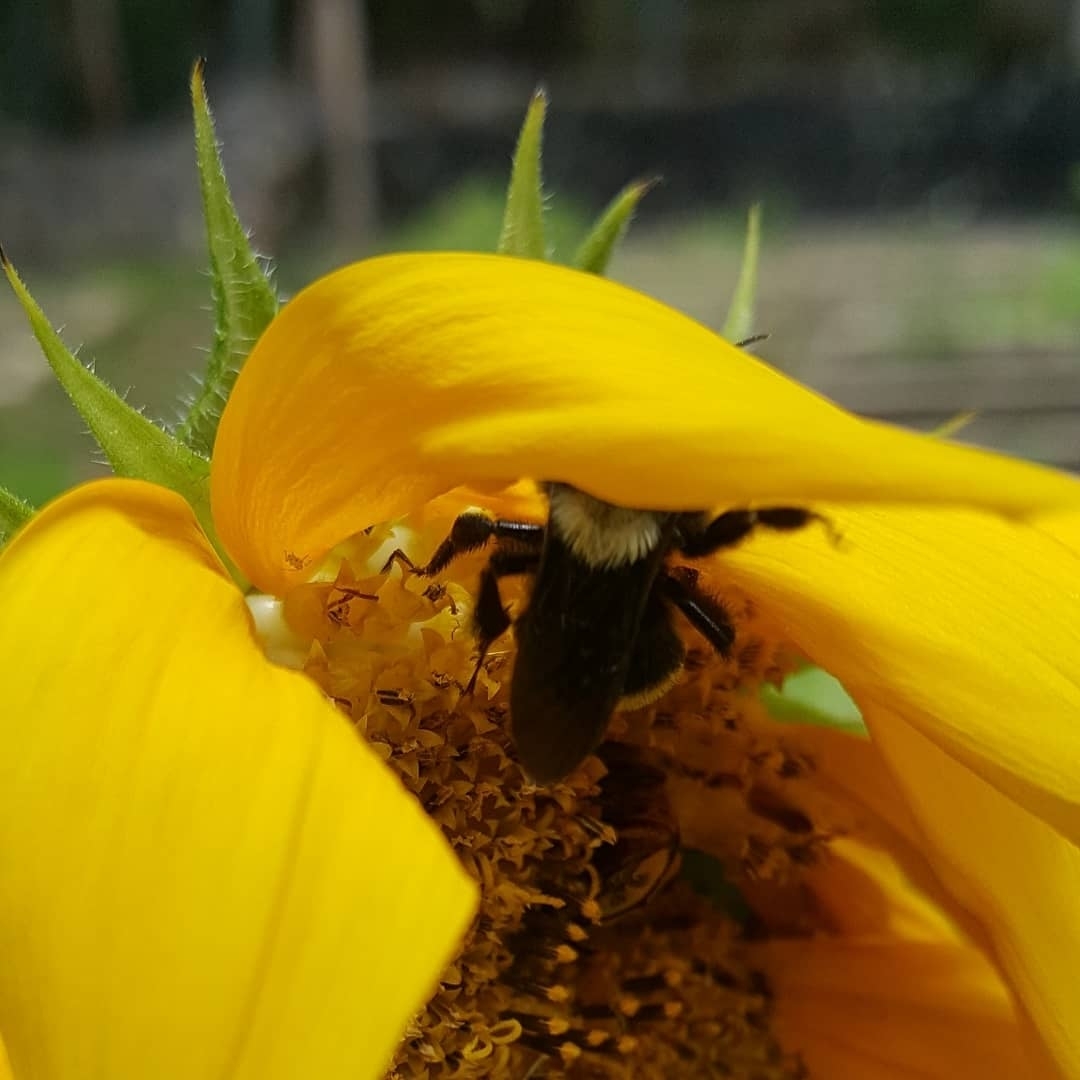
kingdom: Animalia
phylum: Arthropoda
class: Insecta
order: Hymenoptera
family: Apidae
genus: Bombus
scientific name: Bombus medius
